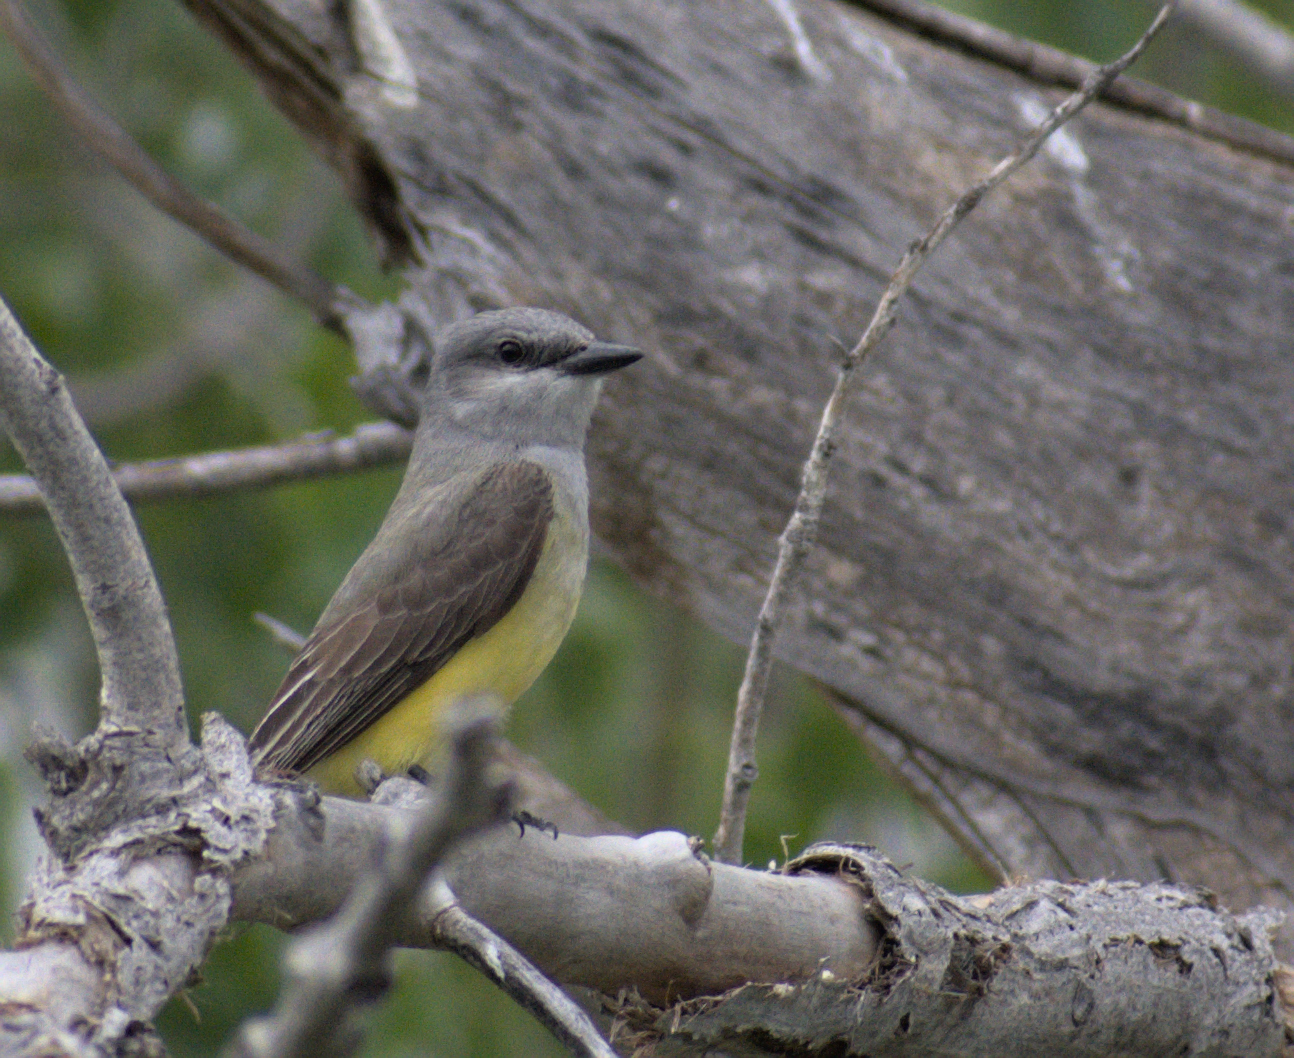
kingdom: Animalia
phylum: Chordata
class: Aves
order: Passeriformes
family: Tyrannidae
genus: Tyrannus
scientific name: Tyrannus verticalis
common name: Western kingbird
